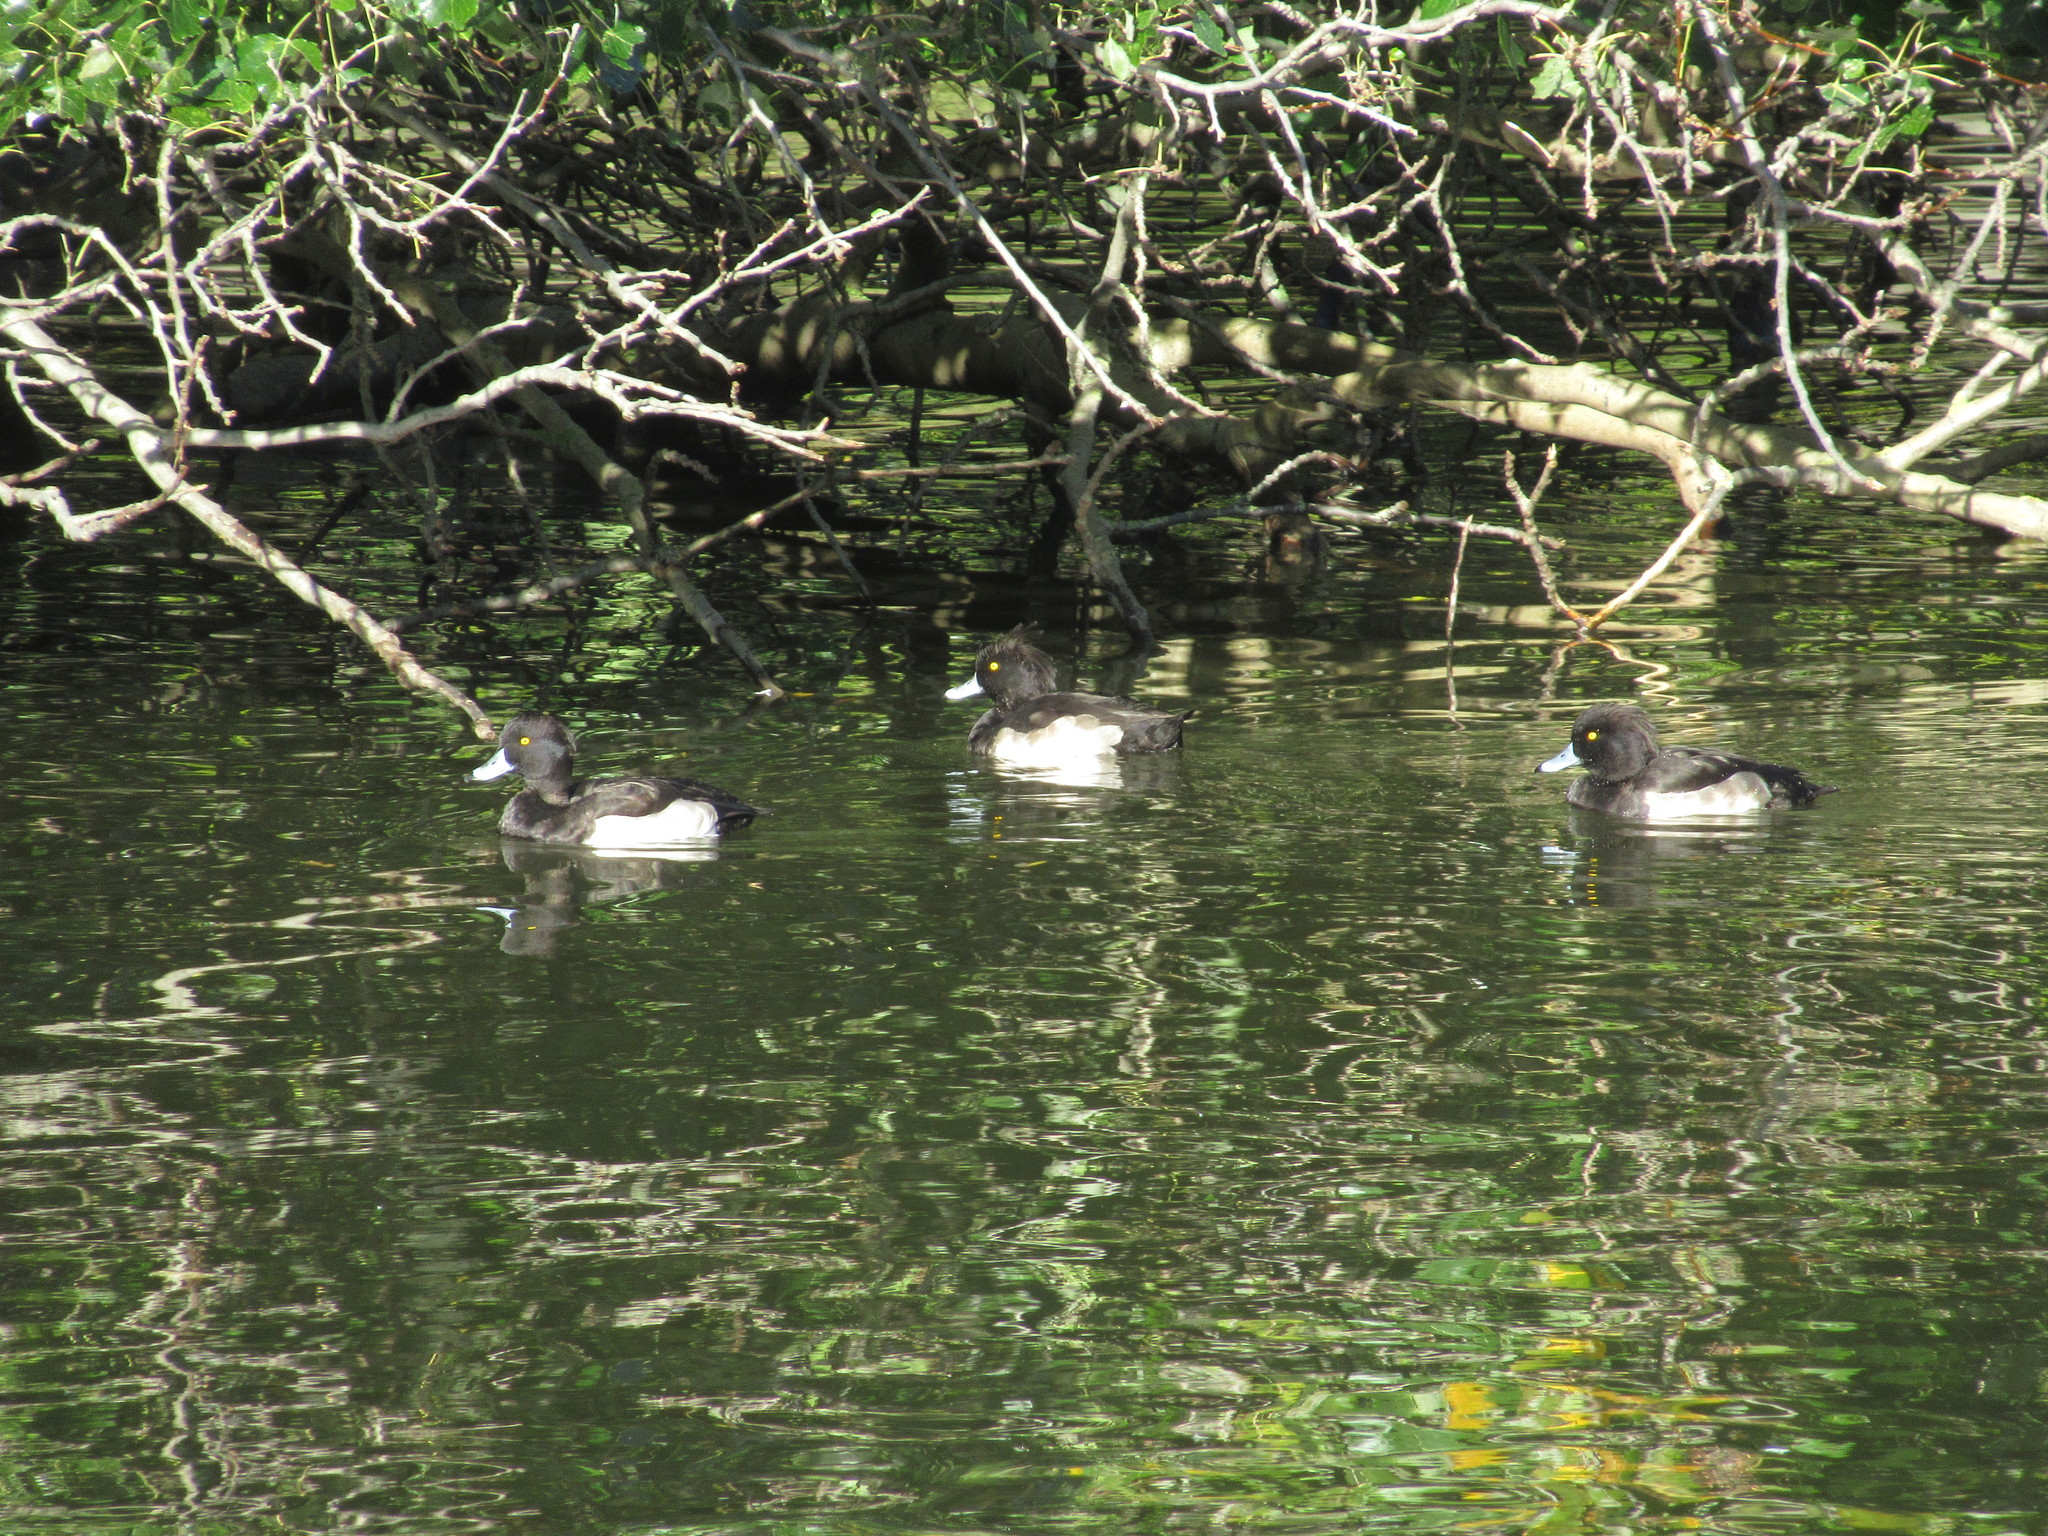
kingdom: Animalia
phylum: Chordata
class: Aves
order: Anseriformes
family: Anatidae
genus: Aythya
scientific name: Aythya fuligula
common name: Tufted duck
